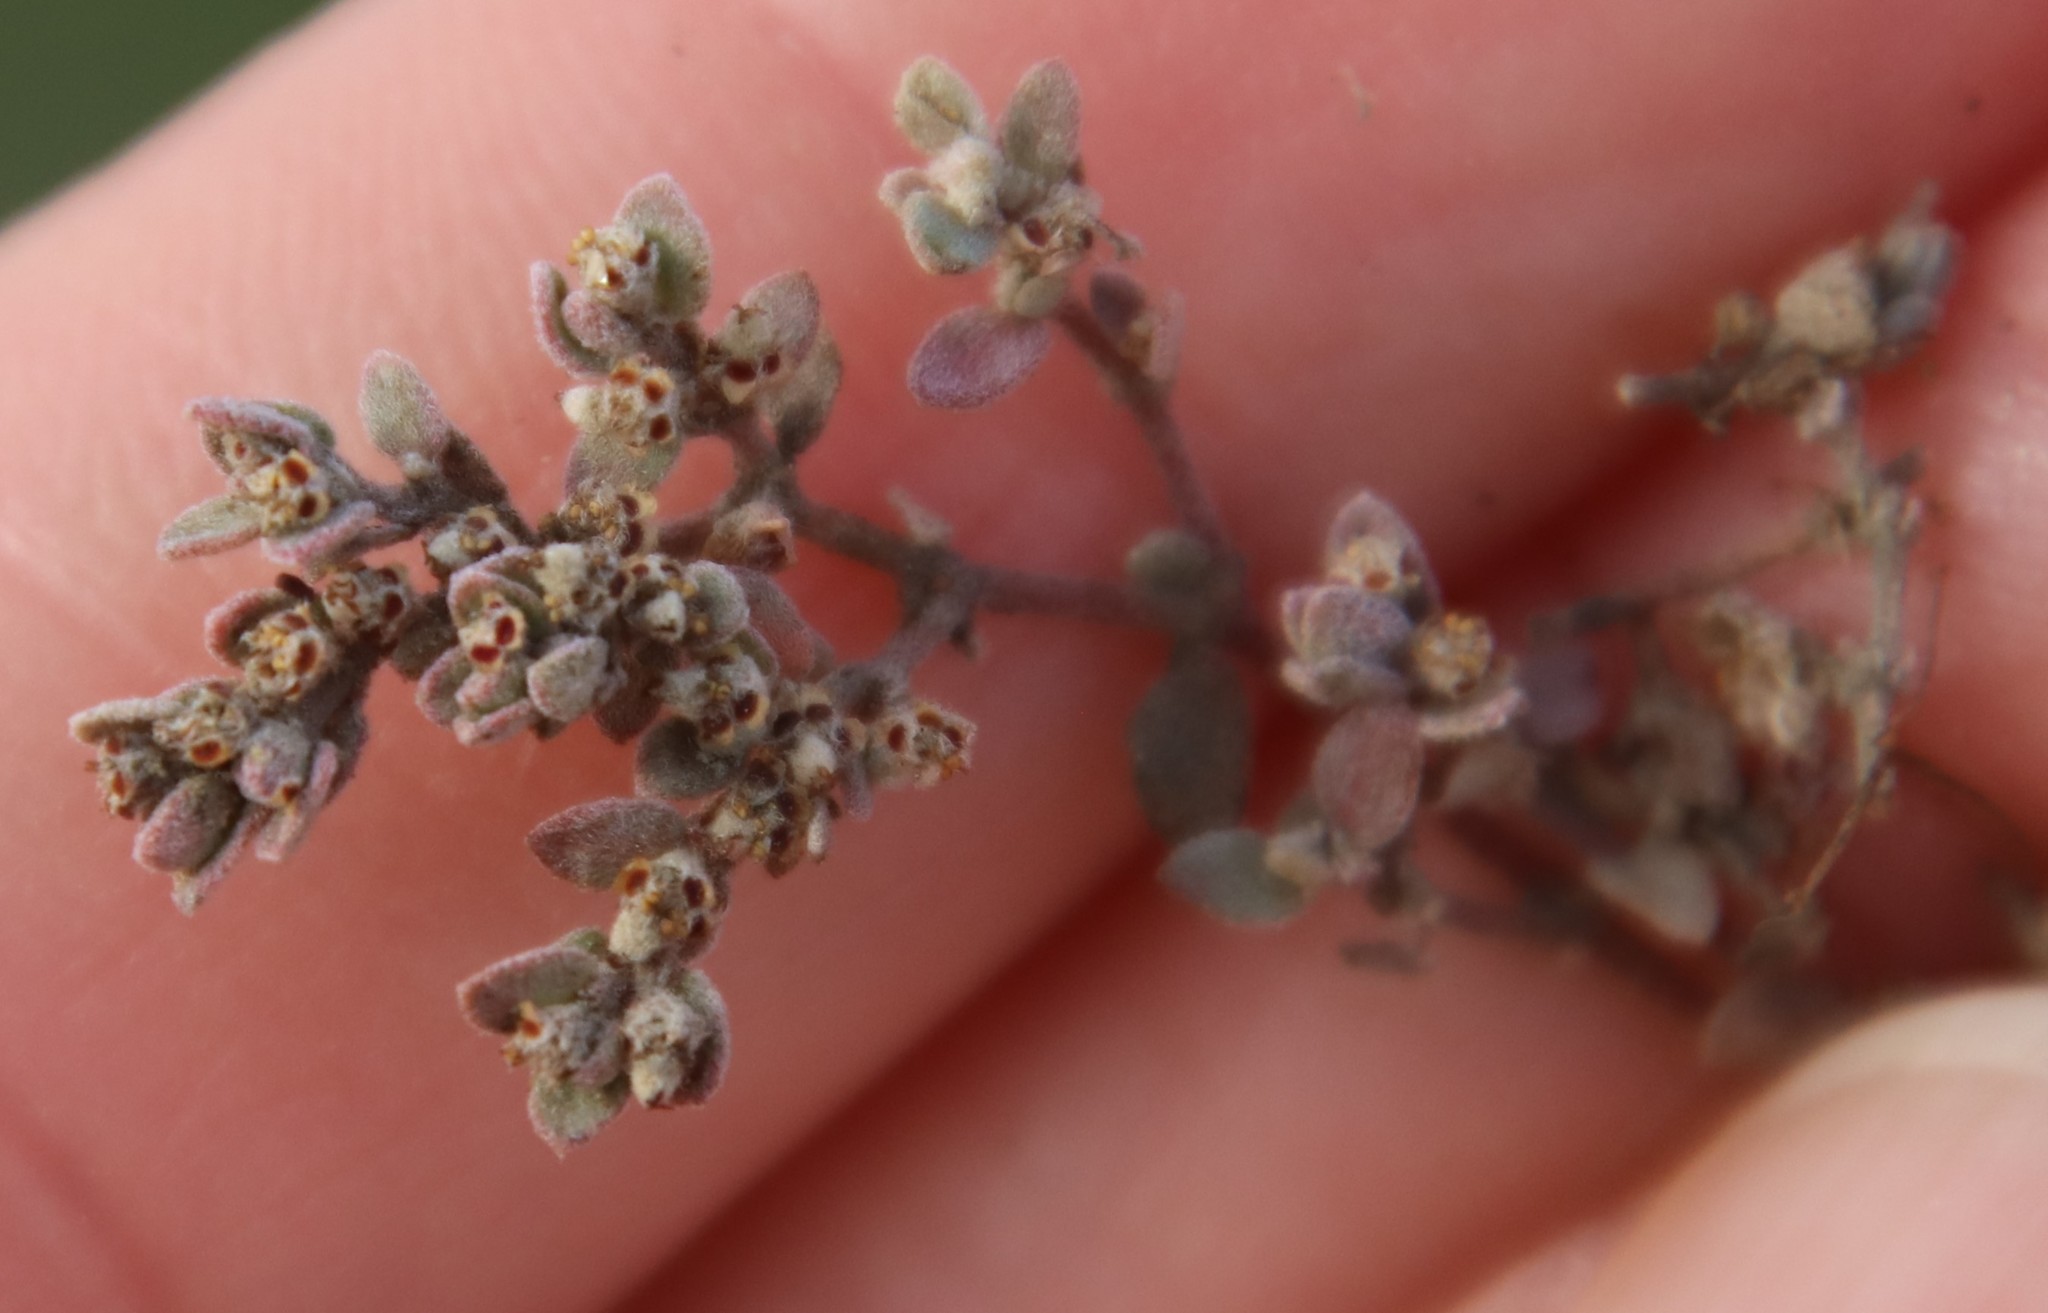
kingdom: Plantae
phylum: Tracheophyta
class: Magnoliopsida
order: Malpighiales
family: Euphorbiaceae
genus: Euphorbia
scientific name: Euphorbia melanadenia
